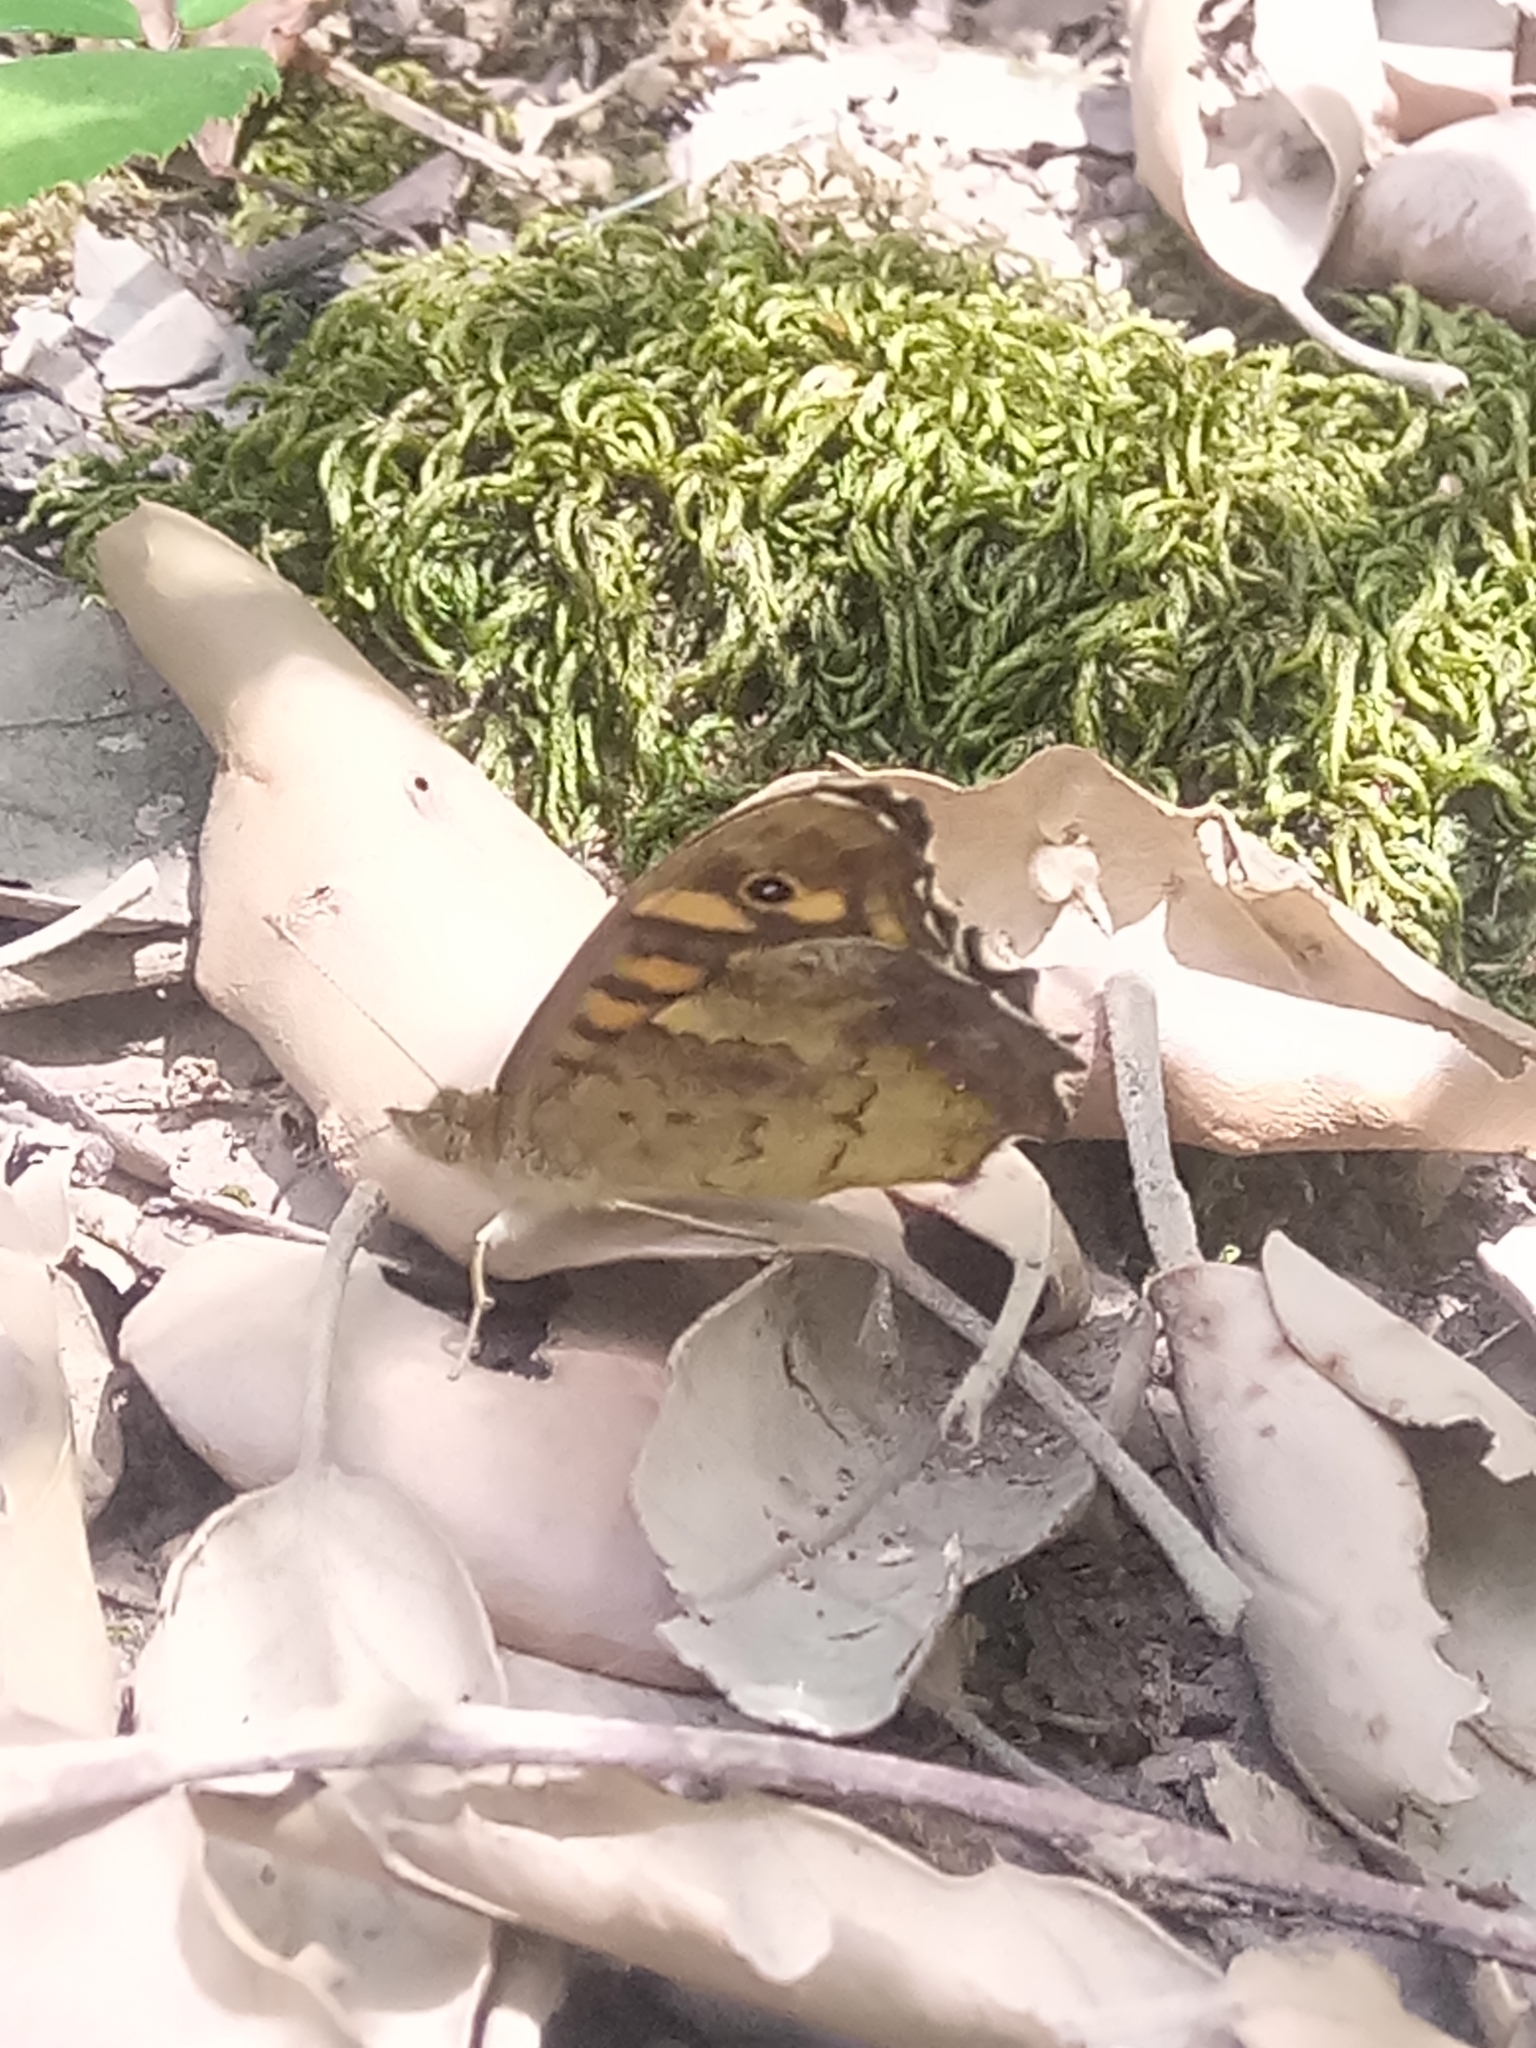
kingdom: Animalia
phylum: Arthropoda
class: Insecta
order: Lepidoptera
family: Nymphalidae
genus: Pararge
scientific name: Pararge aegeria
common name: Speckled wood
